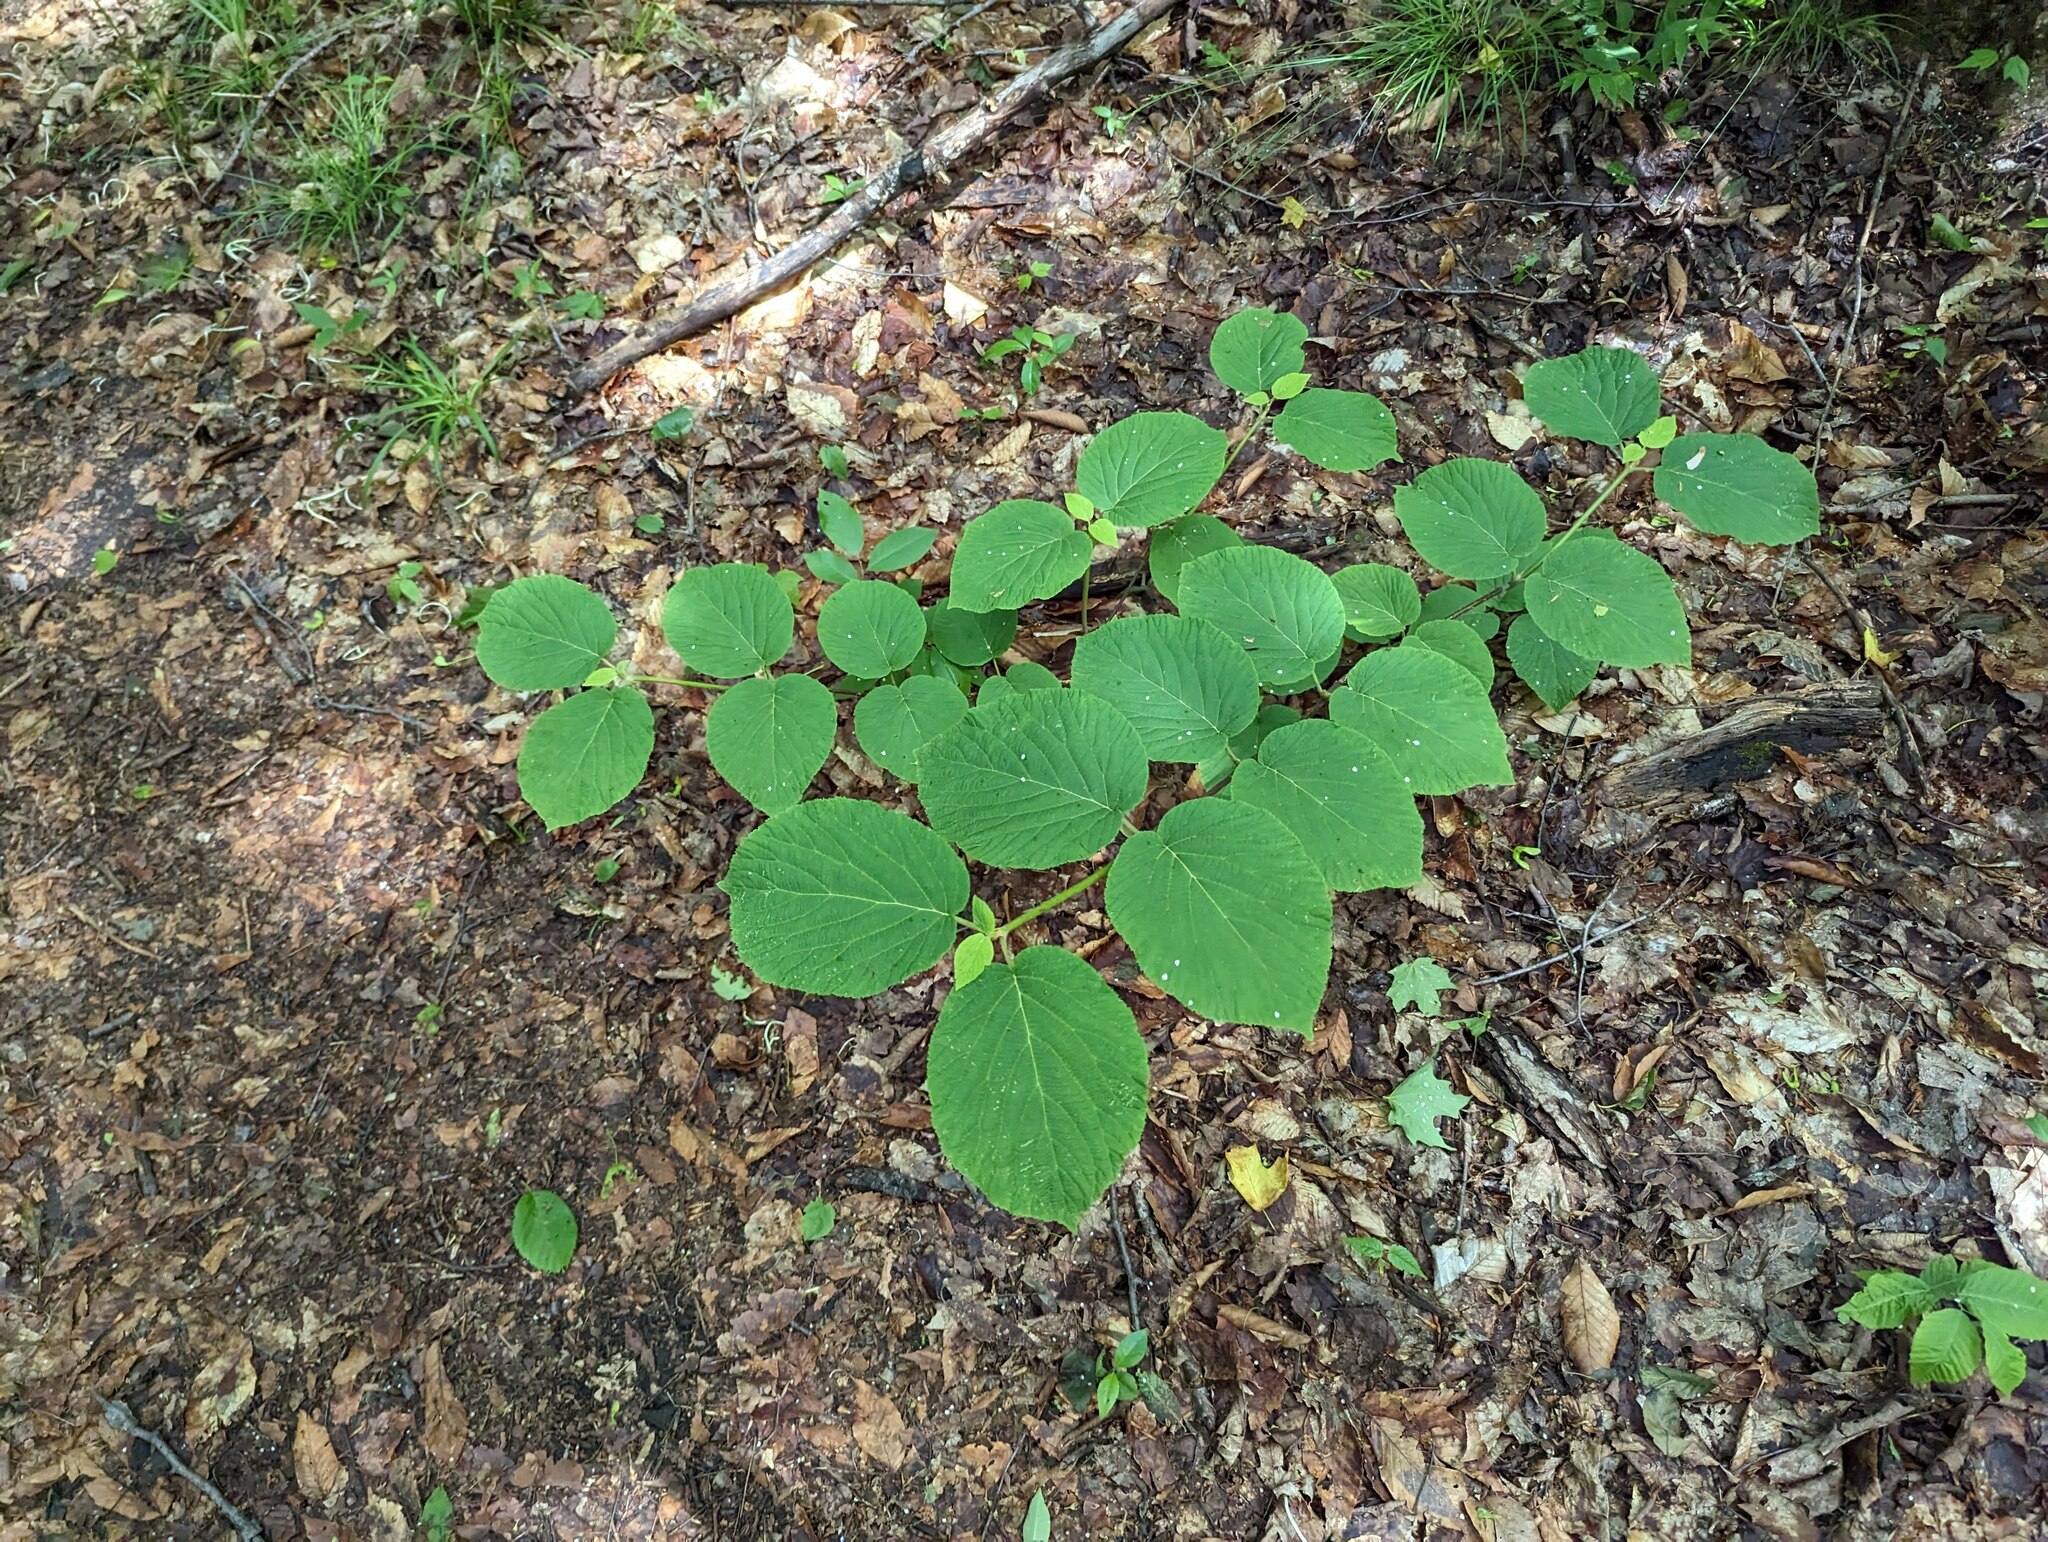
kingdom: Plantae
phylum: Tracheophyta
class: Magnoliopsida
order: Dipsacales
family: Viburnaceae
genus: Viburnum
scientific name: Viburnum lantanoides
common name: Hobblebush
